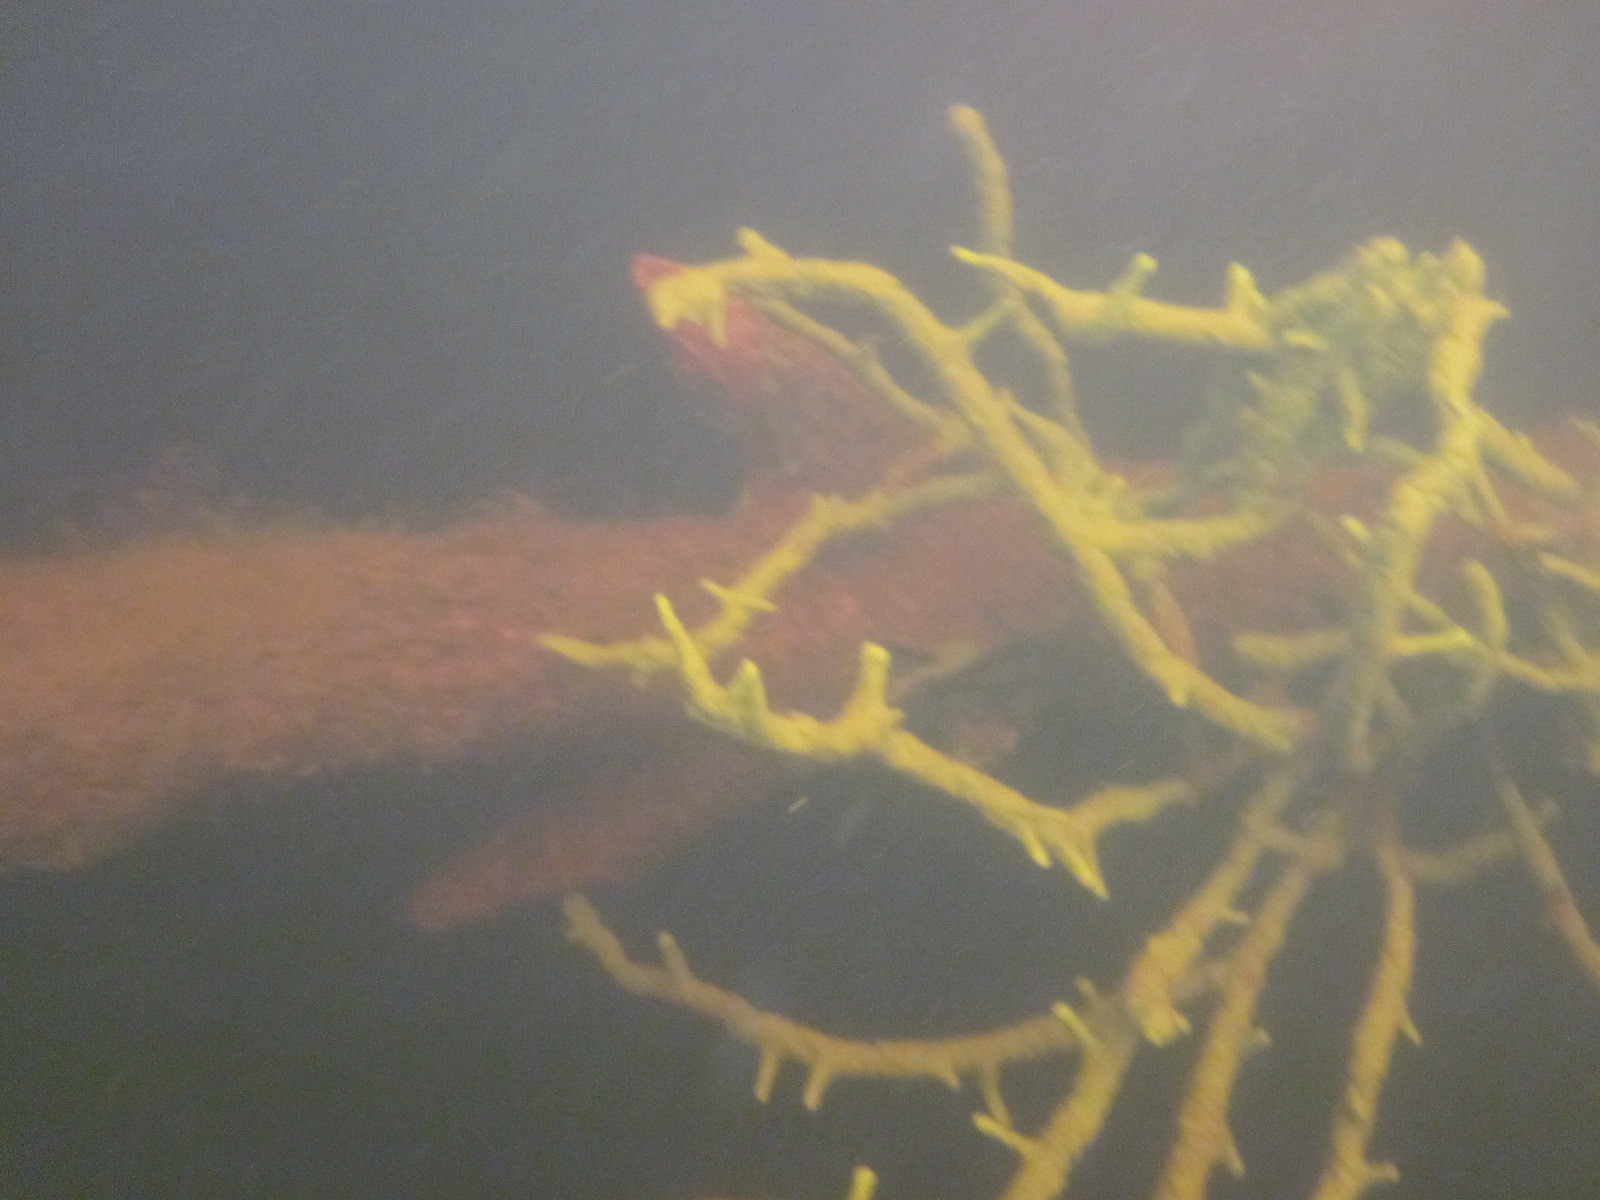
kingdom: Animalia
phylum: Porifera
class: Demospongiae
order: Spongillida
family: Spongillidae
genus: Spongilla
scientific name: Spongilla lacustris
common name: Common freshwater sponge
